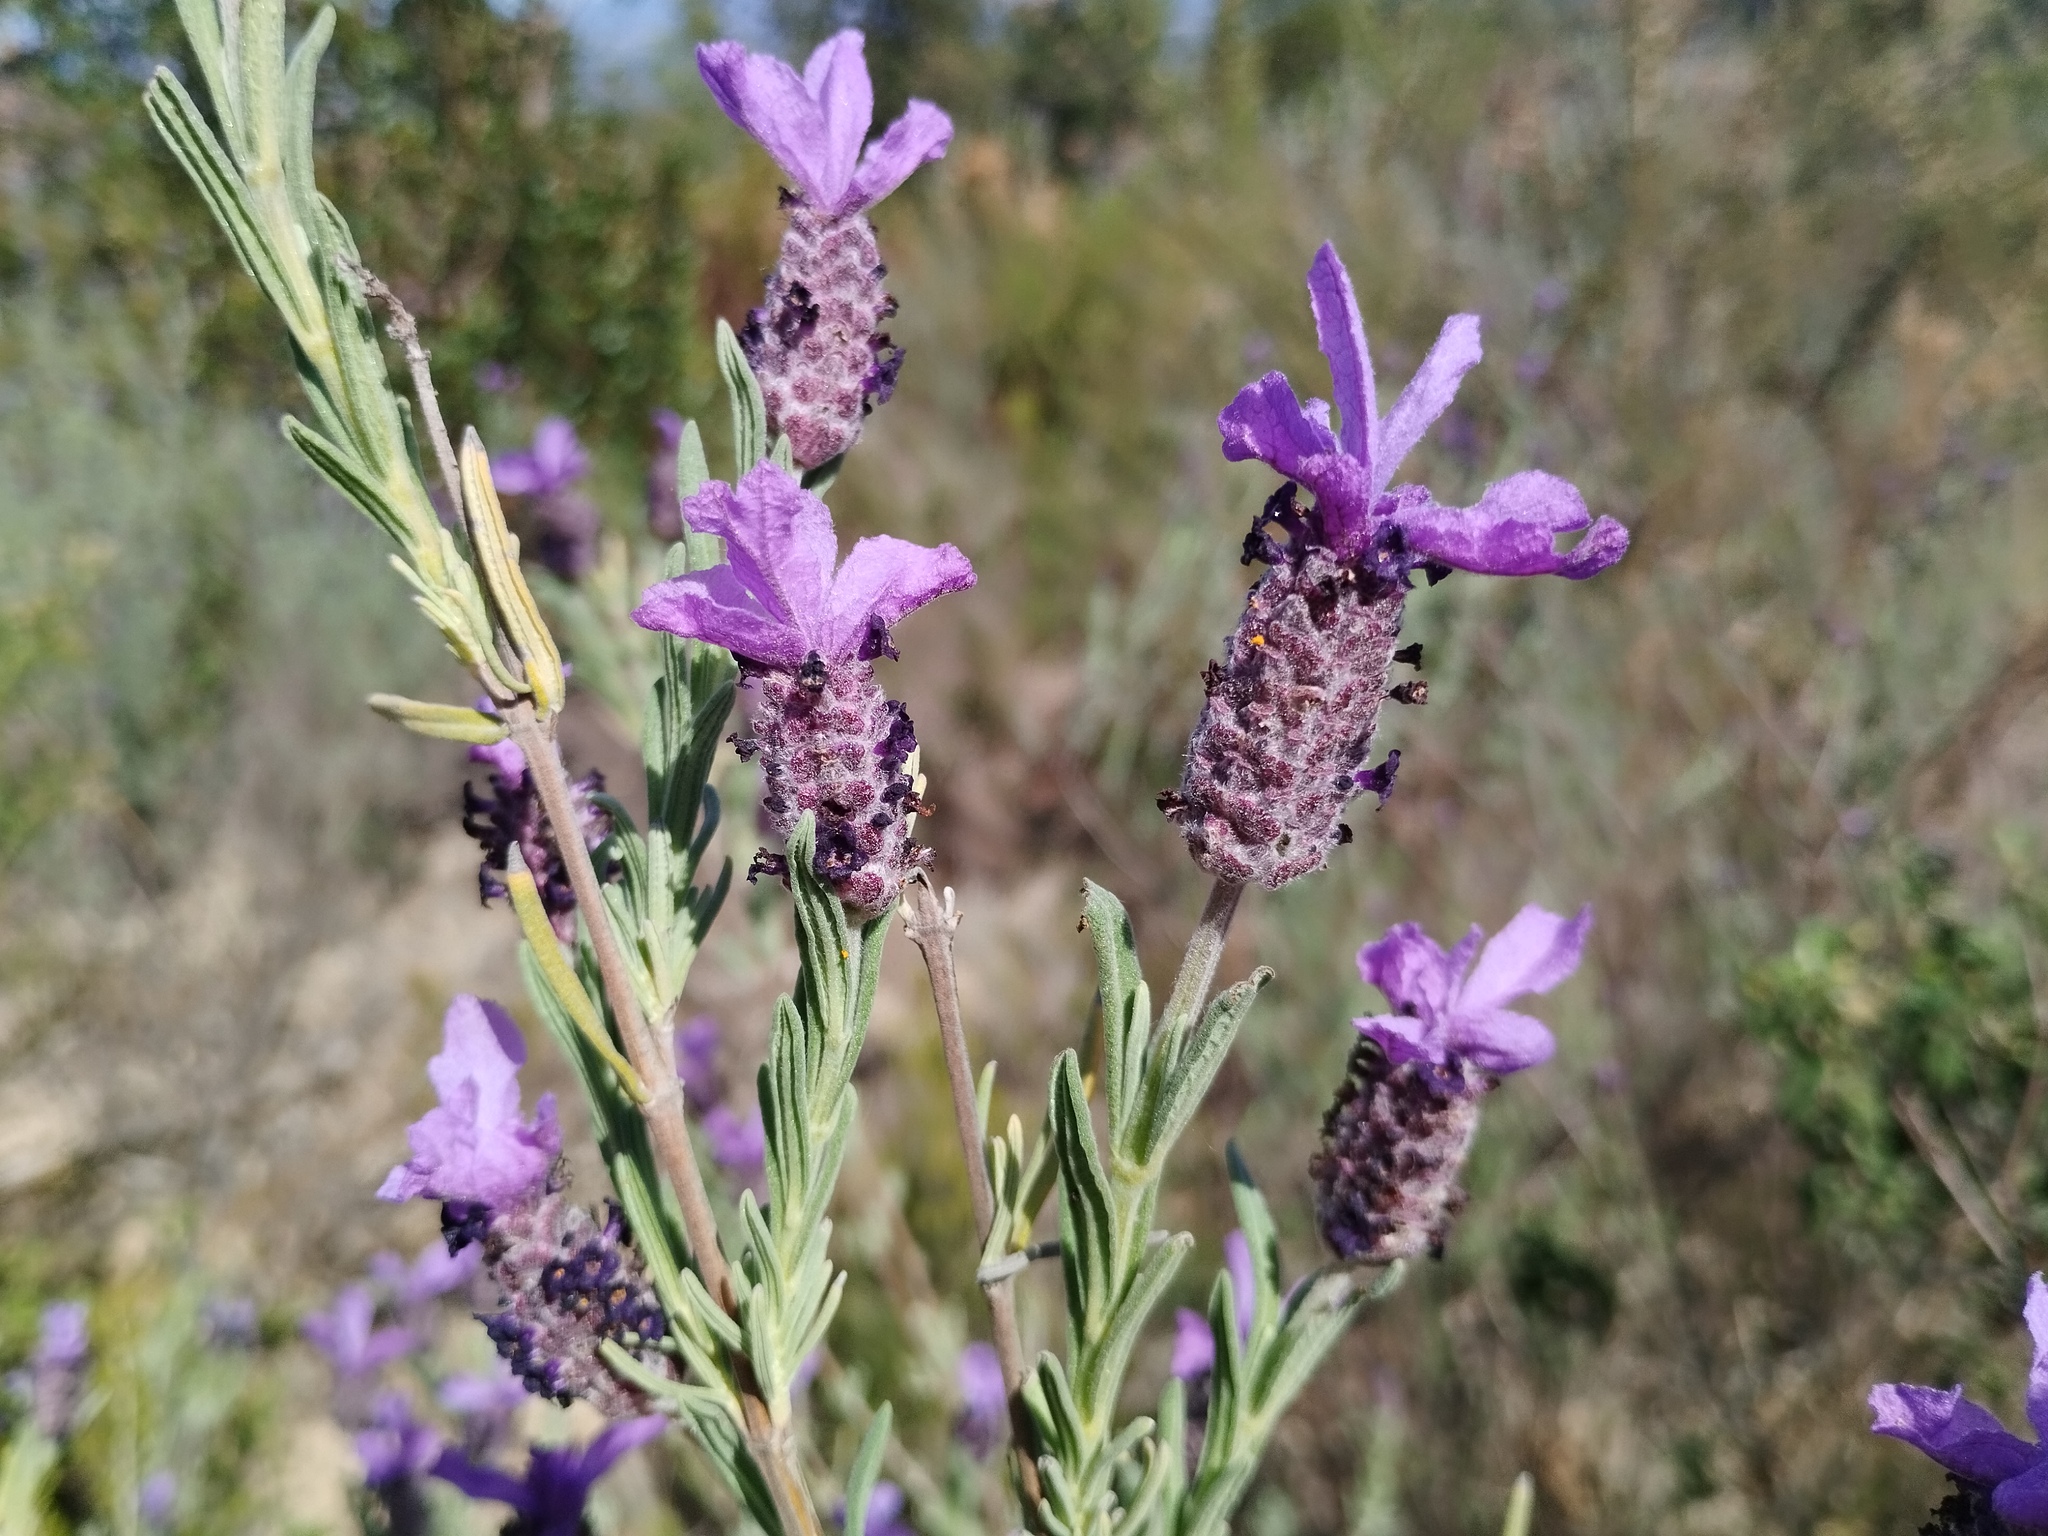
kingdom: Plantae
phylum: Tracheophyta
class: Magnoliopsida
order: Lamiales
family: Lamiaceae
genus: Lavandula
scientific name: Lavandula stoechas
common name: French lavender
